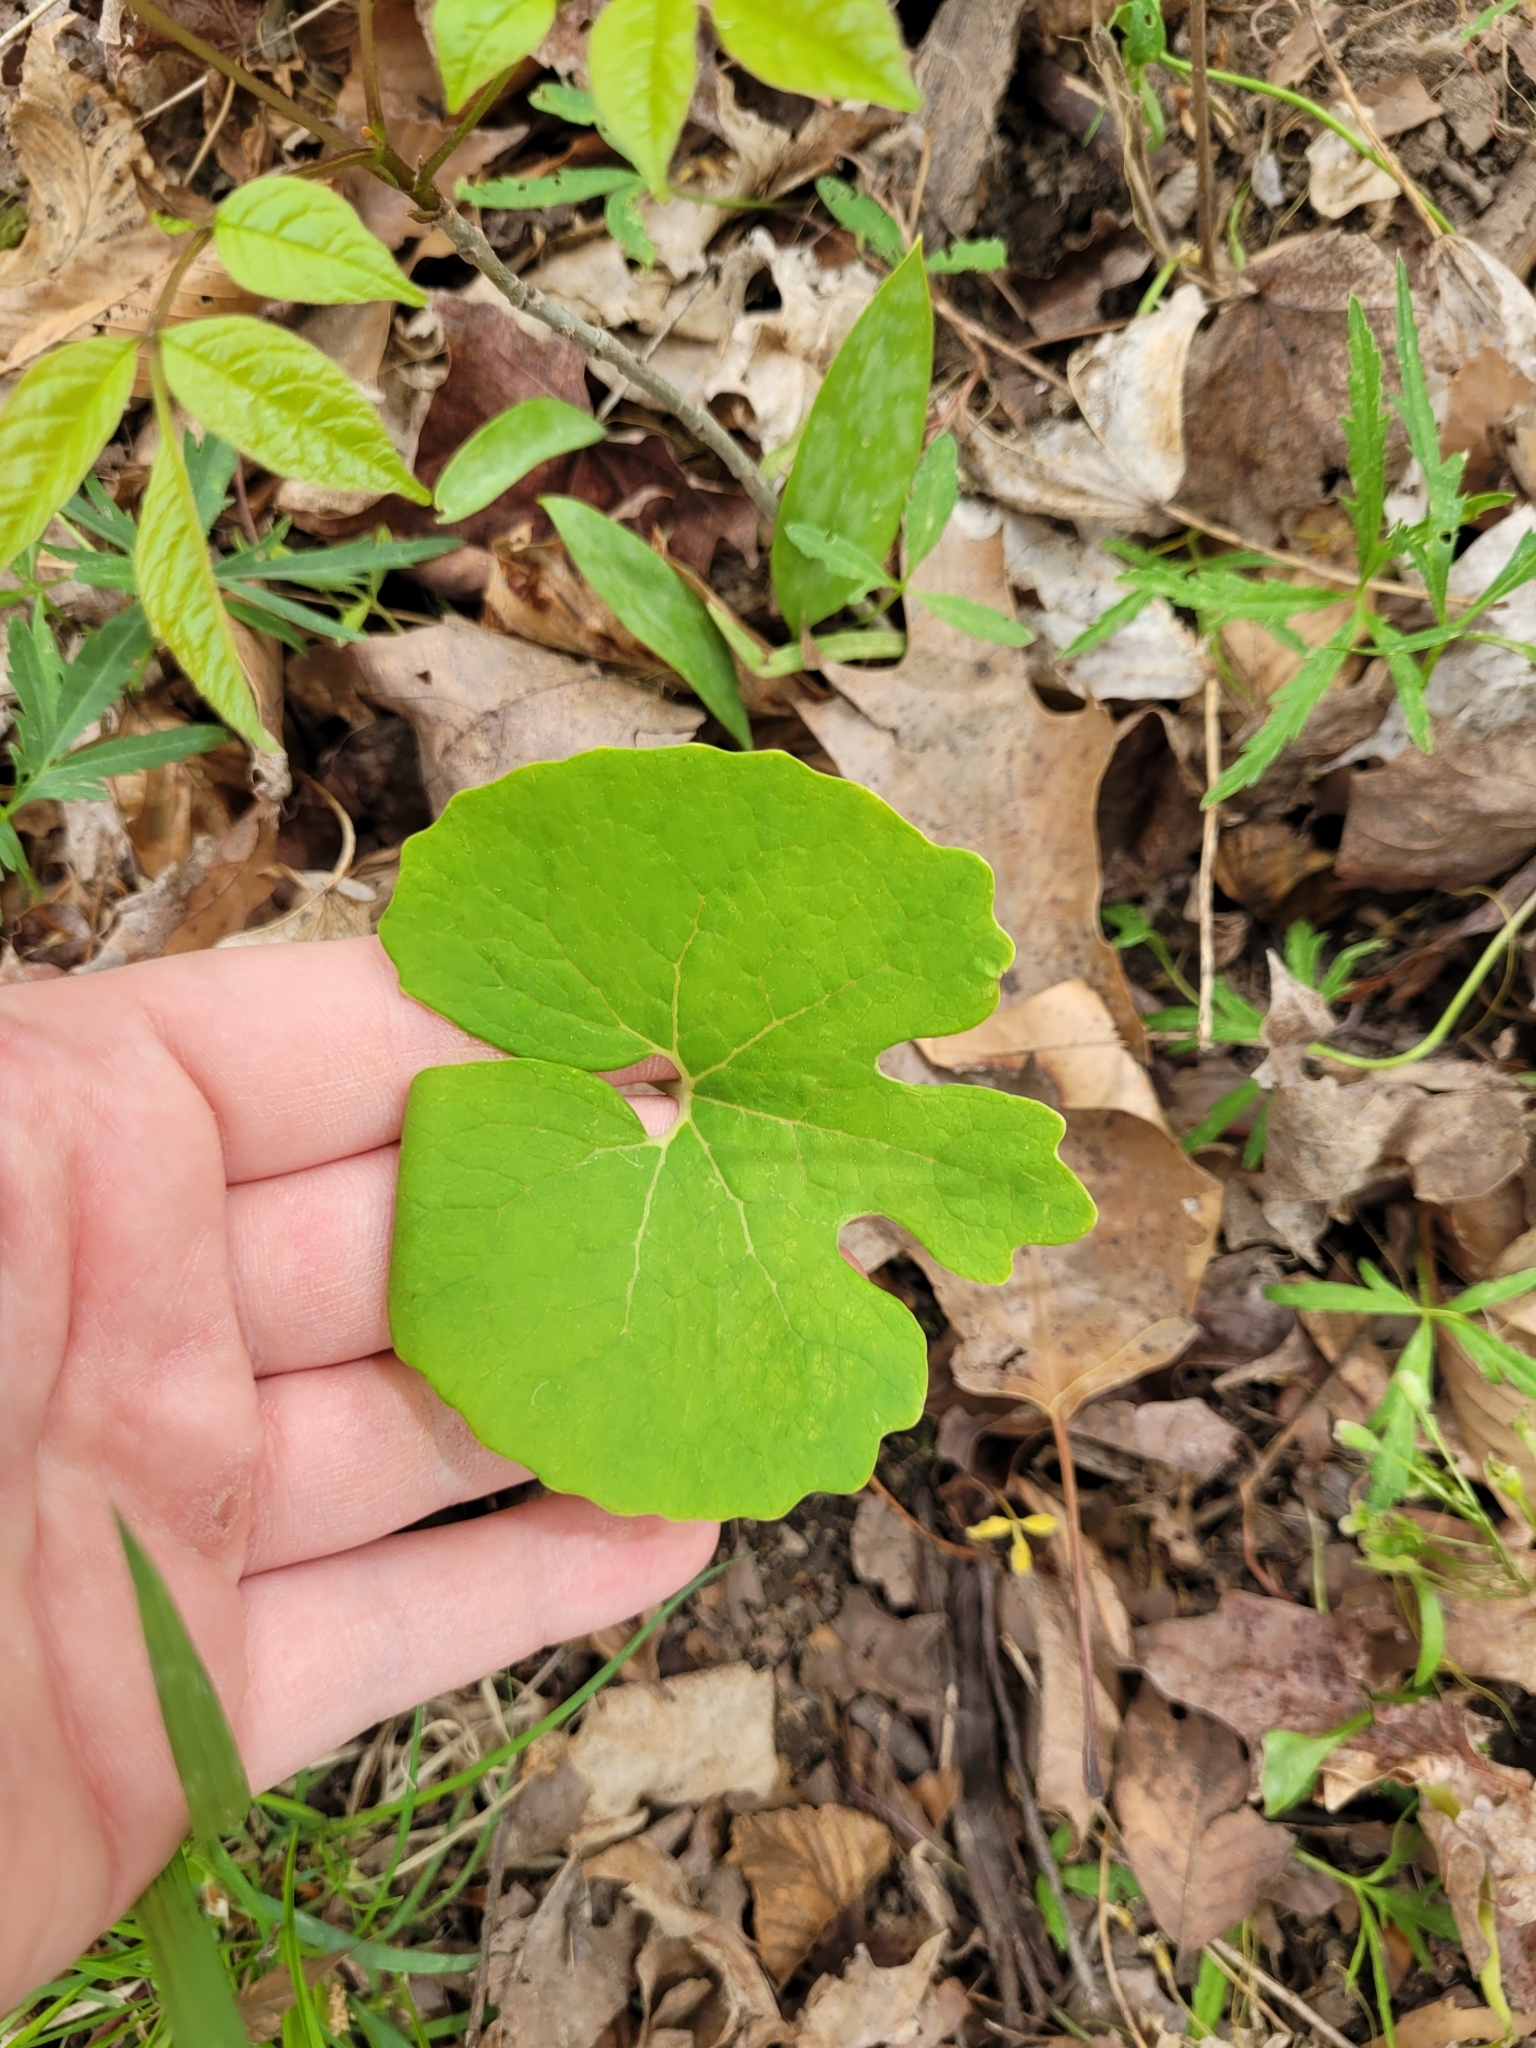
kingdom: Plantae
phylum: Tracheophyta
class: Magnoliopsida
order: Ranunculales
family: Papaveraceae
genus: Sanguinaria
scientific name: Sanguinaria canadensis
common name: Bloodroot
